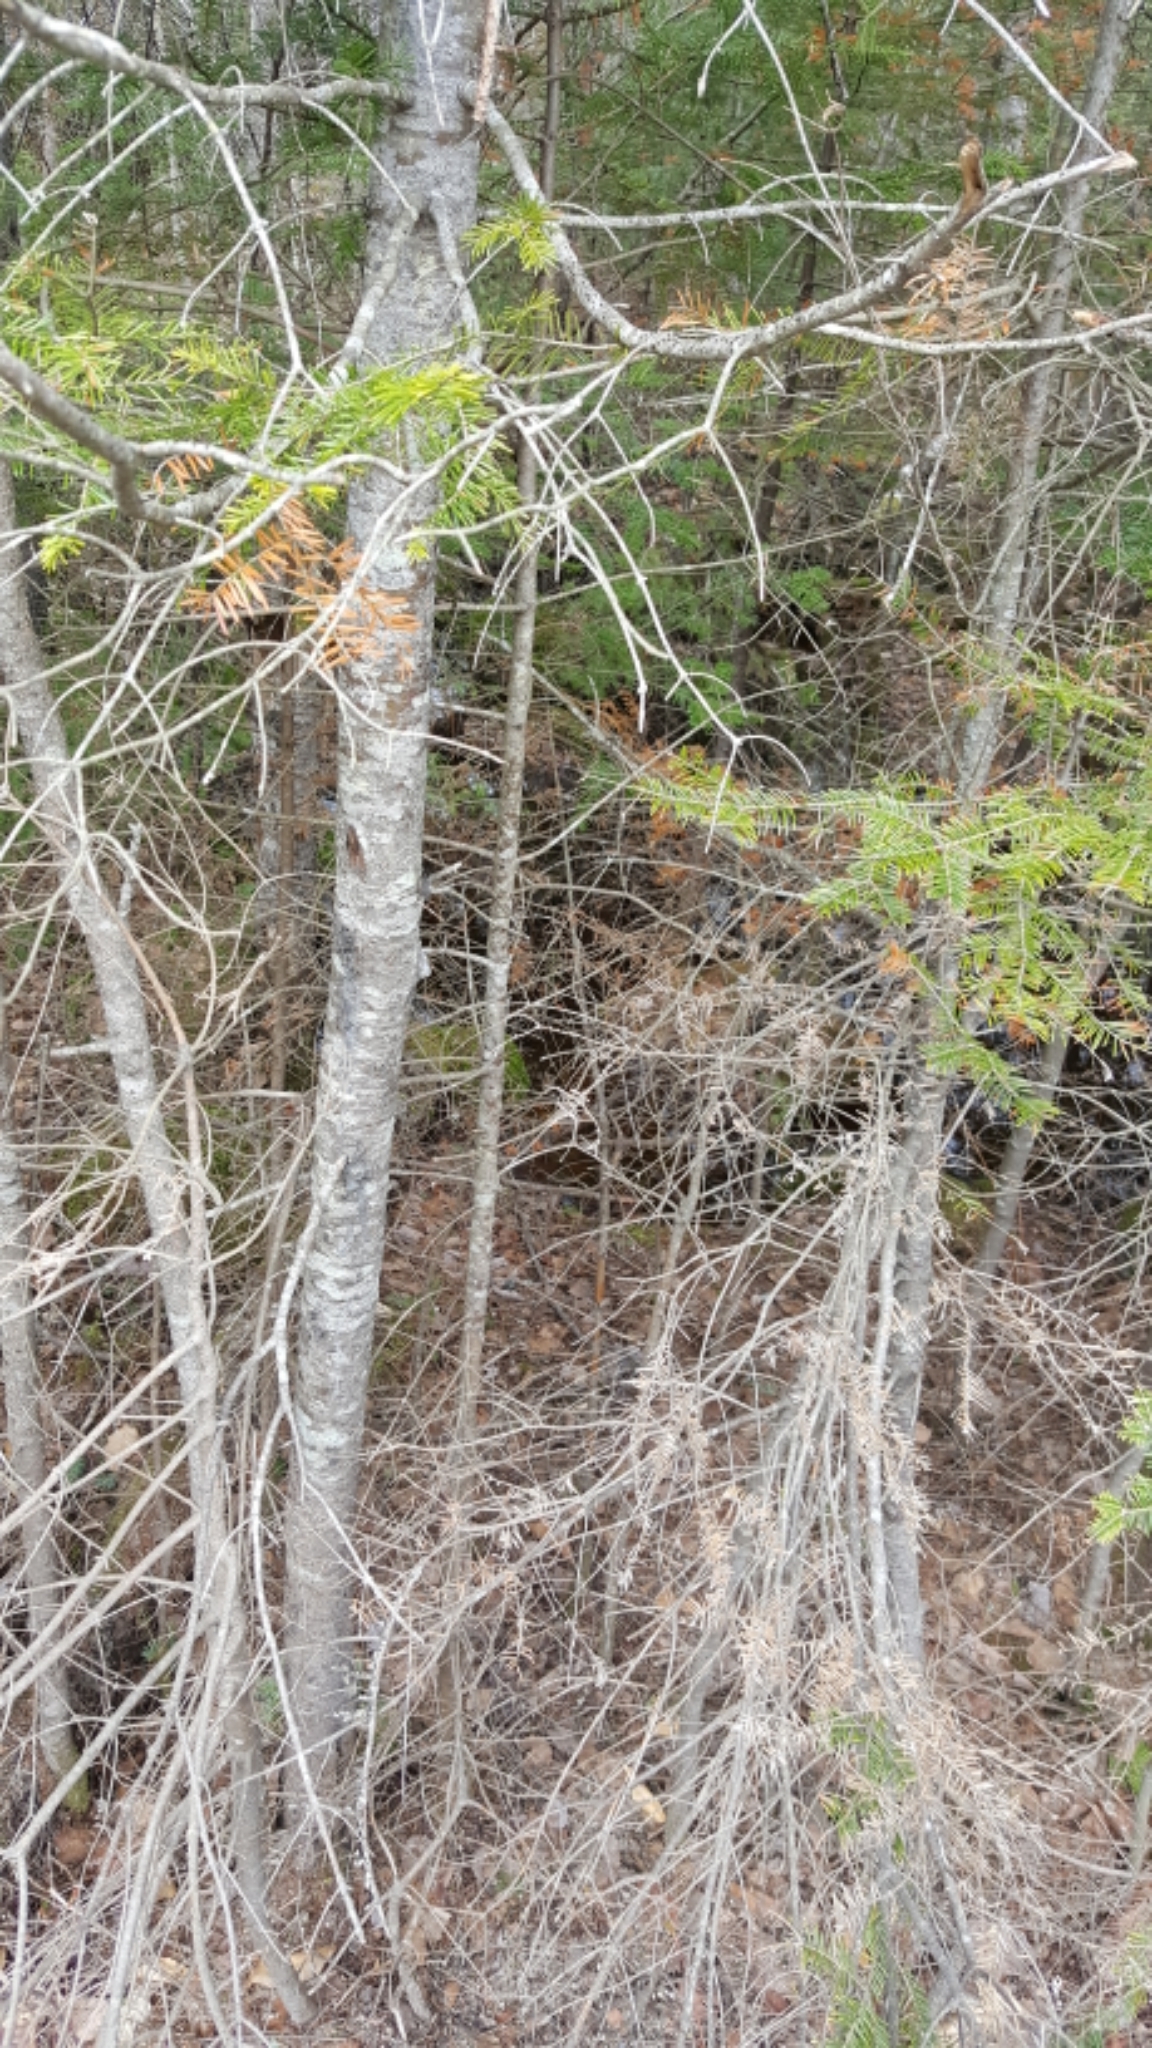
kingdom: Plantae
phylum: Tracheophyta
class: Pinopsida
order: Pinales
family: Pinaceae
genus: Abies
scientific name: Abies balsamea
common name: Balsam fir
